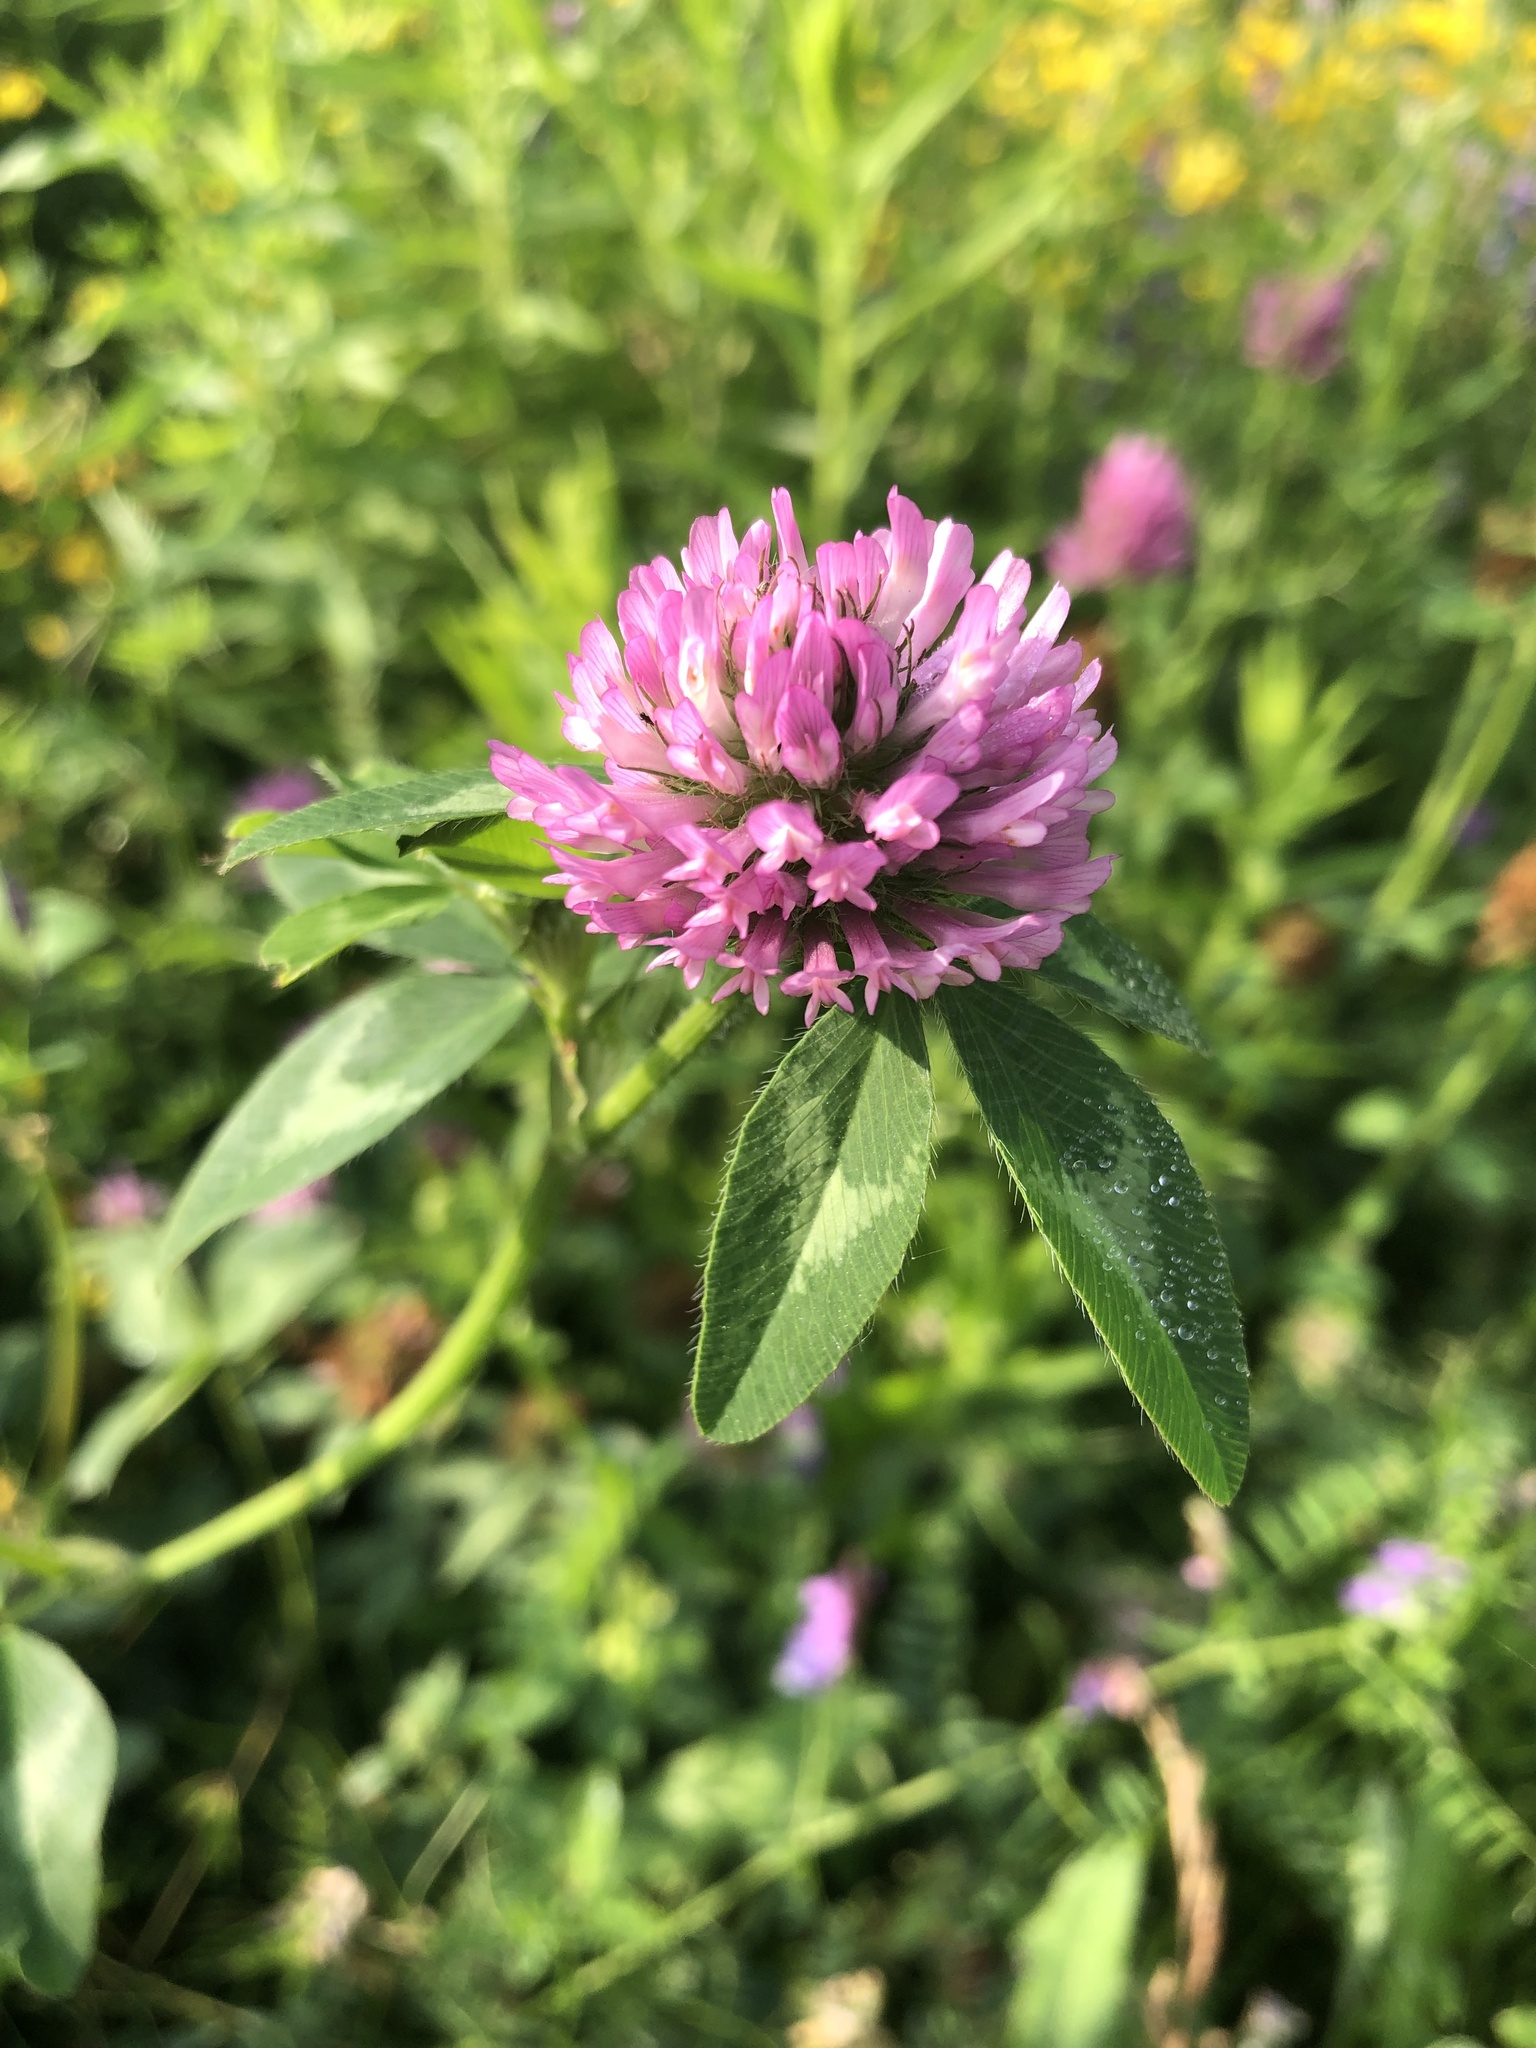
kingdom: Plantae
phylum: Tracheophyta
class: Magnoliopsida
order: Fabales
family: Fabaceae
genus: Trifolium
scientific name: Trifolium pratense
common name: Red clover
